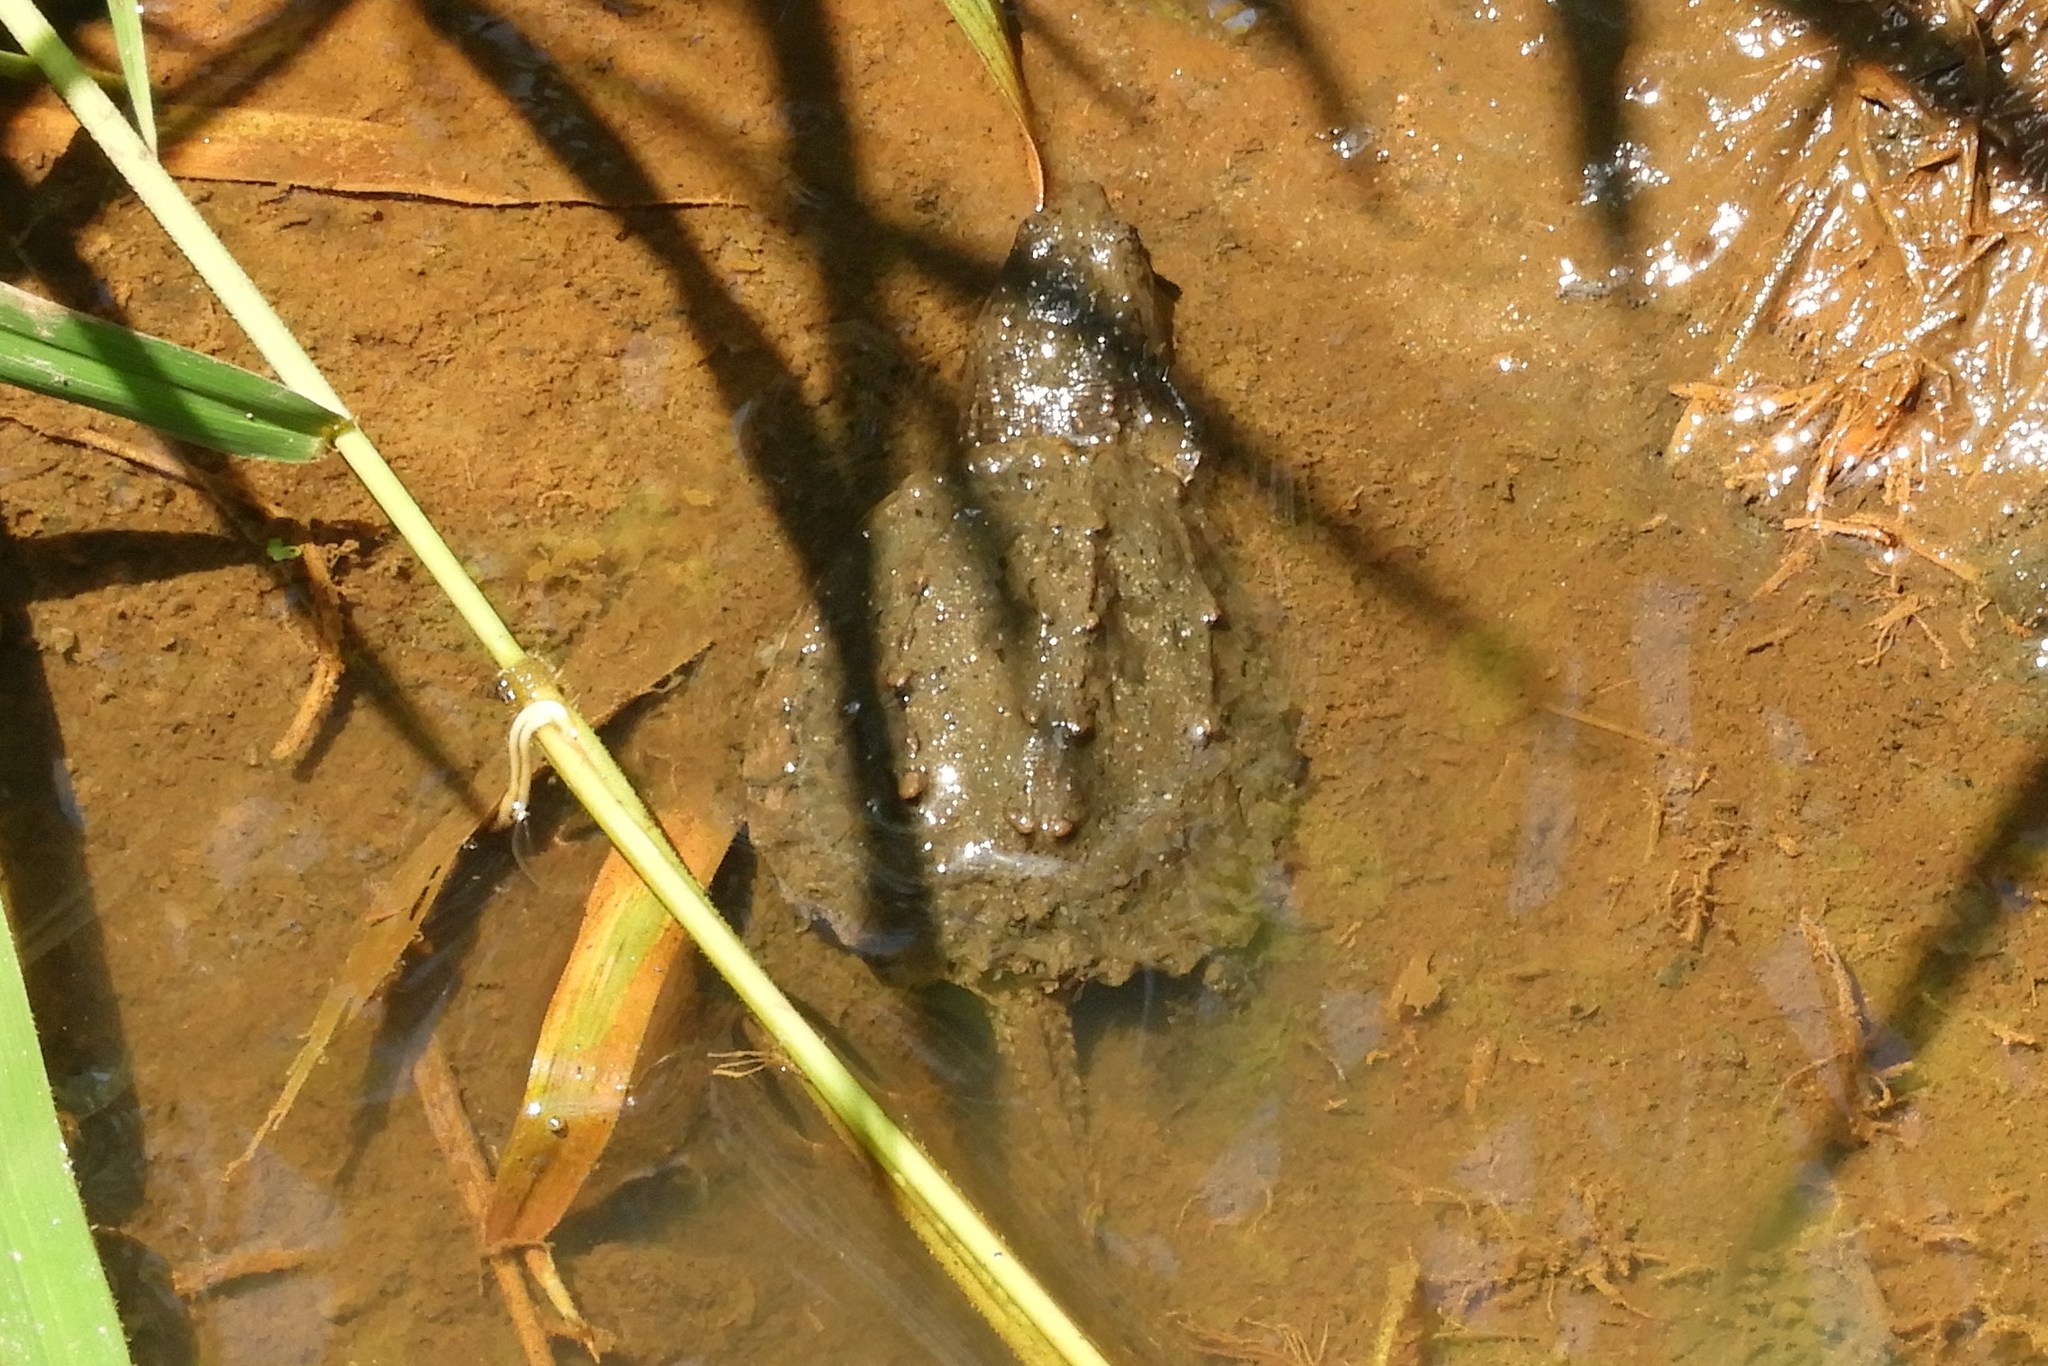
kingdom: Animalia
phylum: Chordata
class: Testudines
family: Chelydridae
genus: Chelydra
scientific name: Chelydra serpentina
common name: Common snapping turtle
